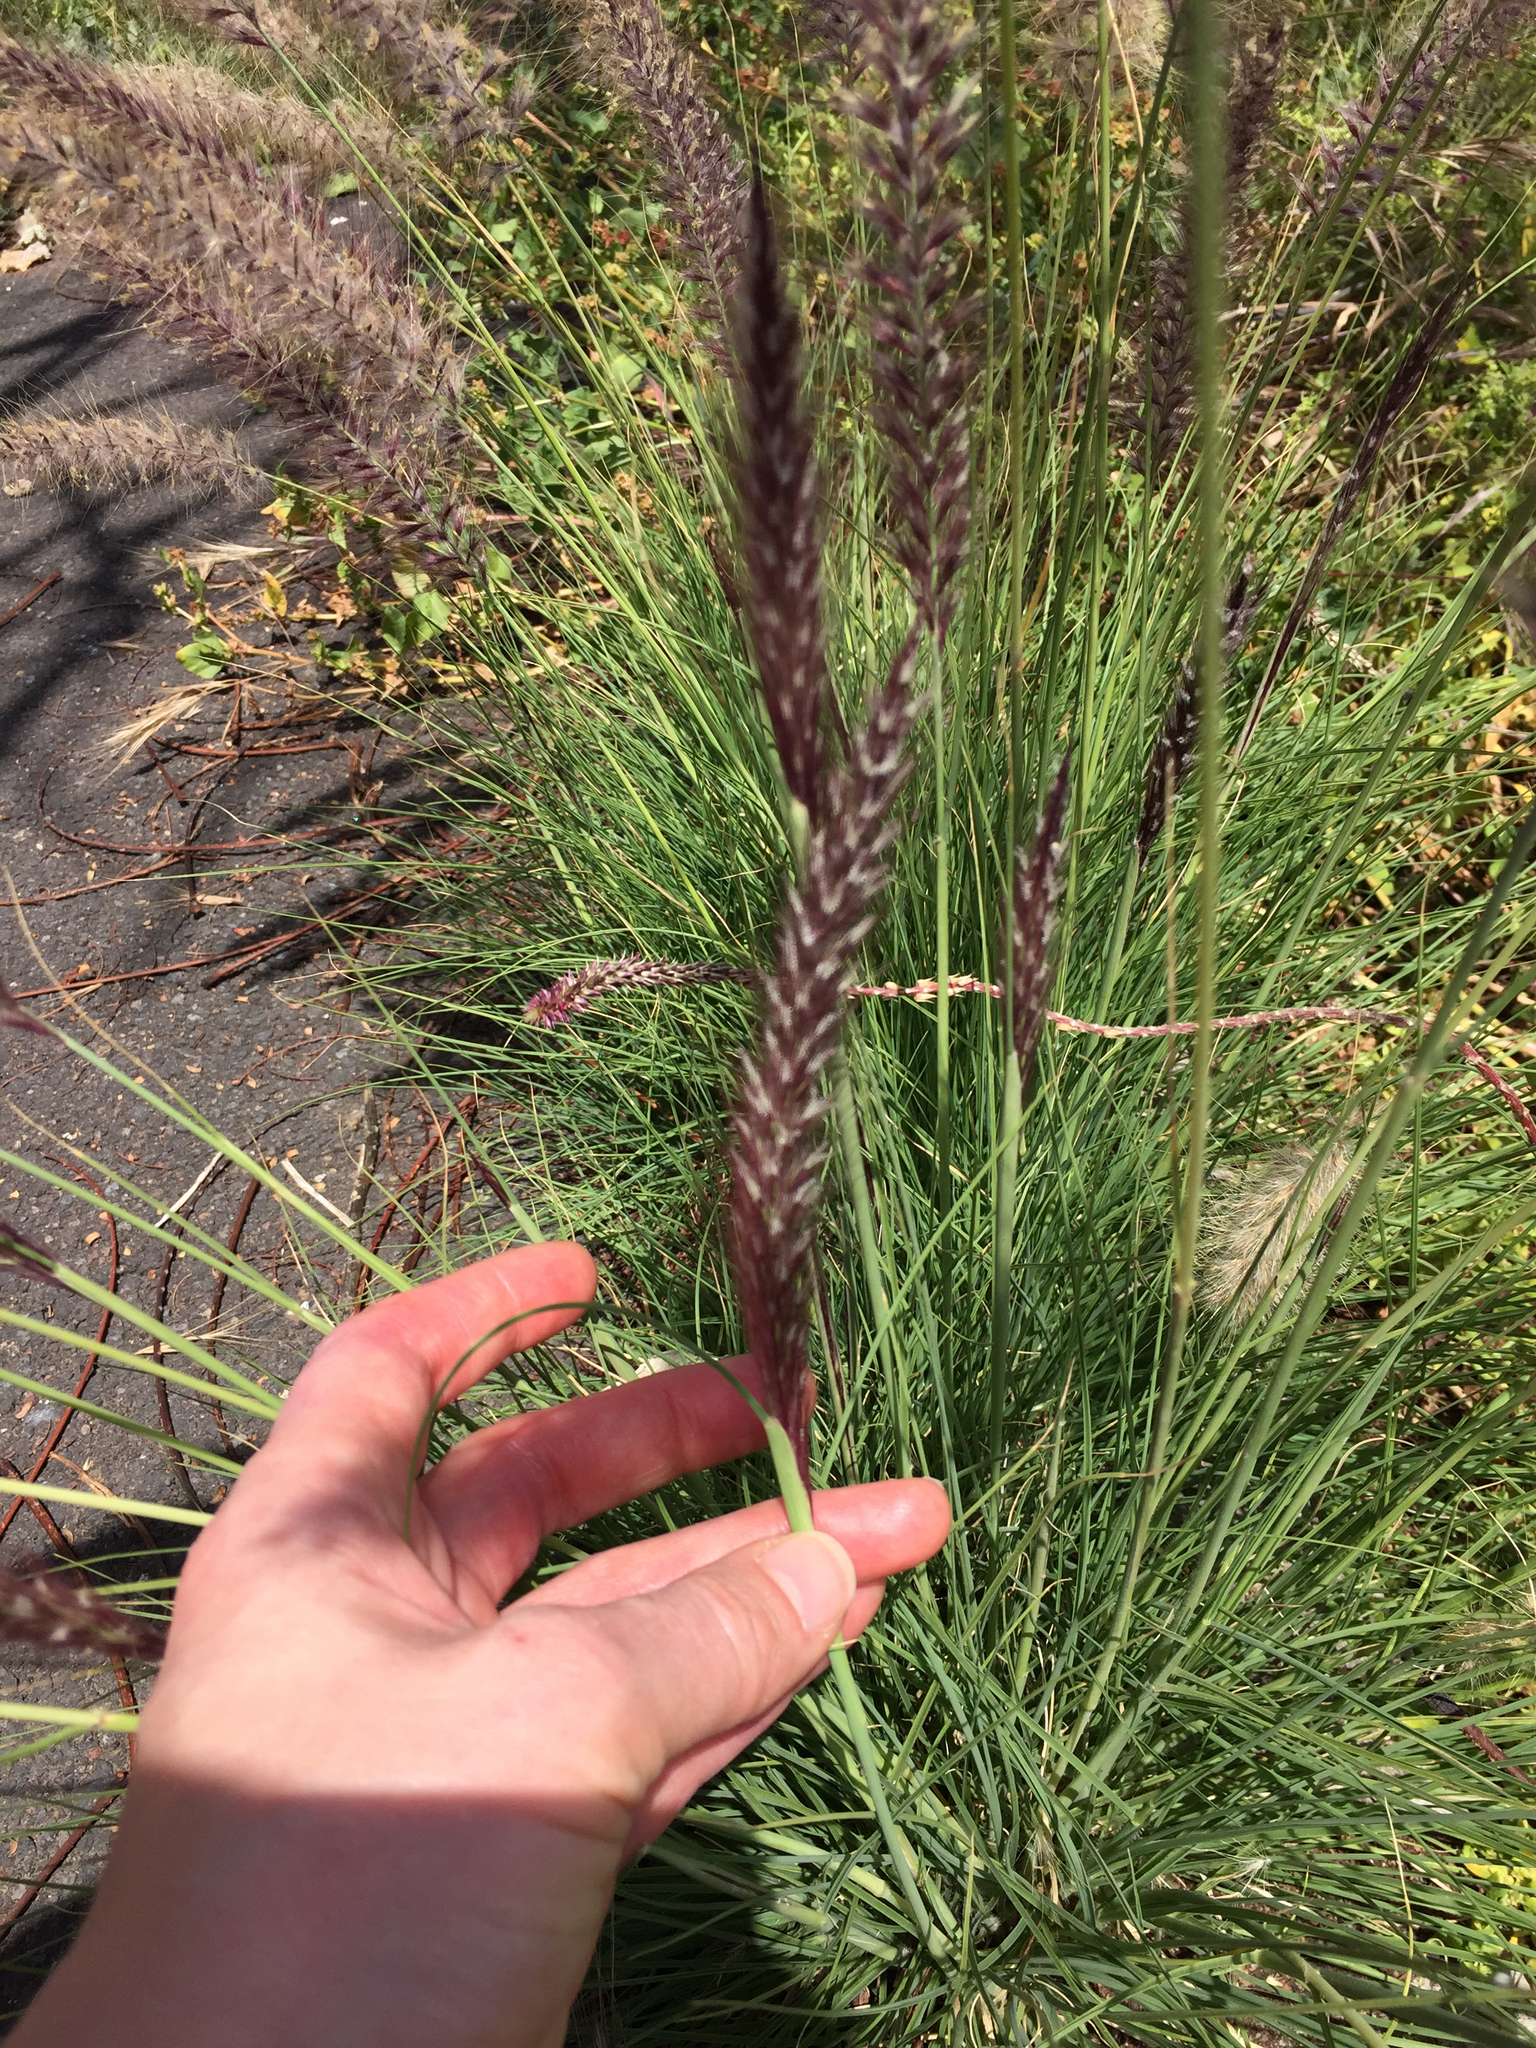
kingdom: Plantae
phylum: Tracheophyta
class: Liliopsida
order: Poales
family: Poaceae
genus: Cenchrus
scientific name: Cenchrus setaceus
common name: Crimson fountaingrass
